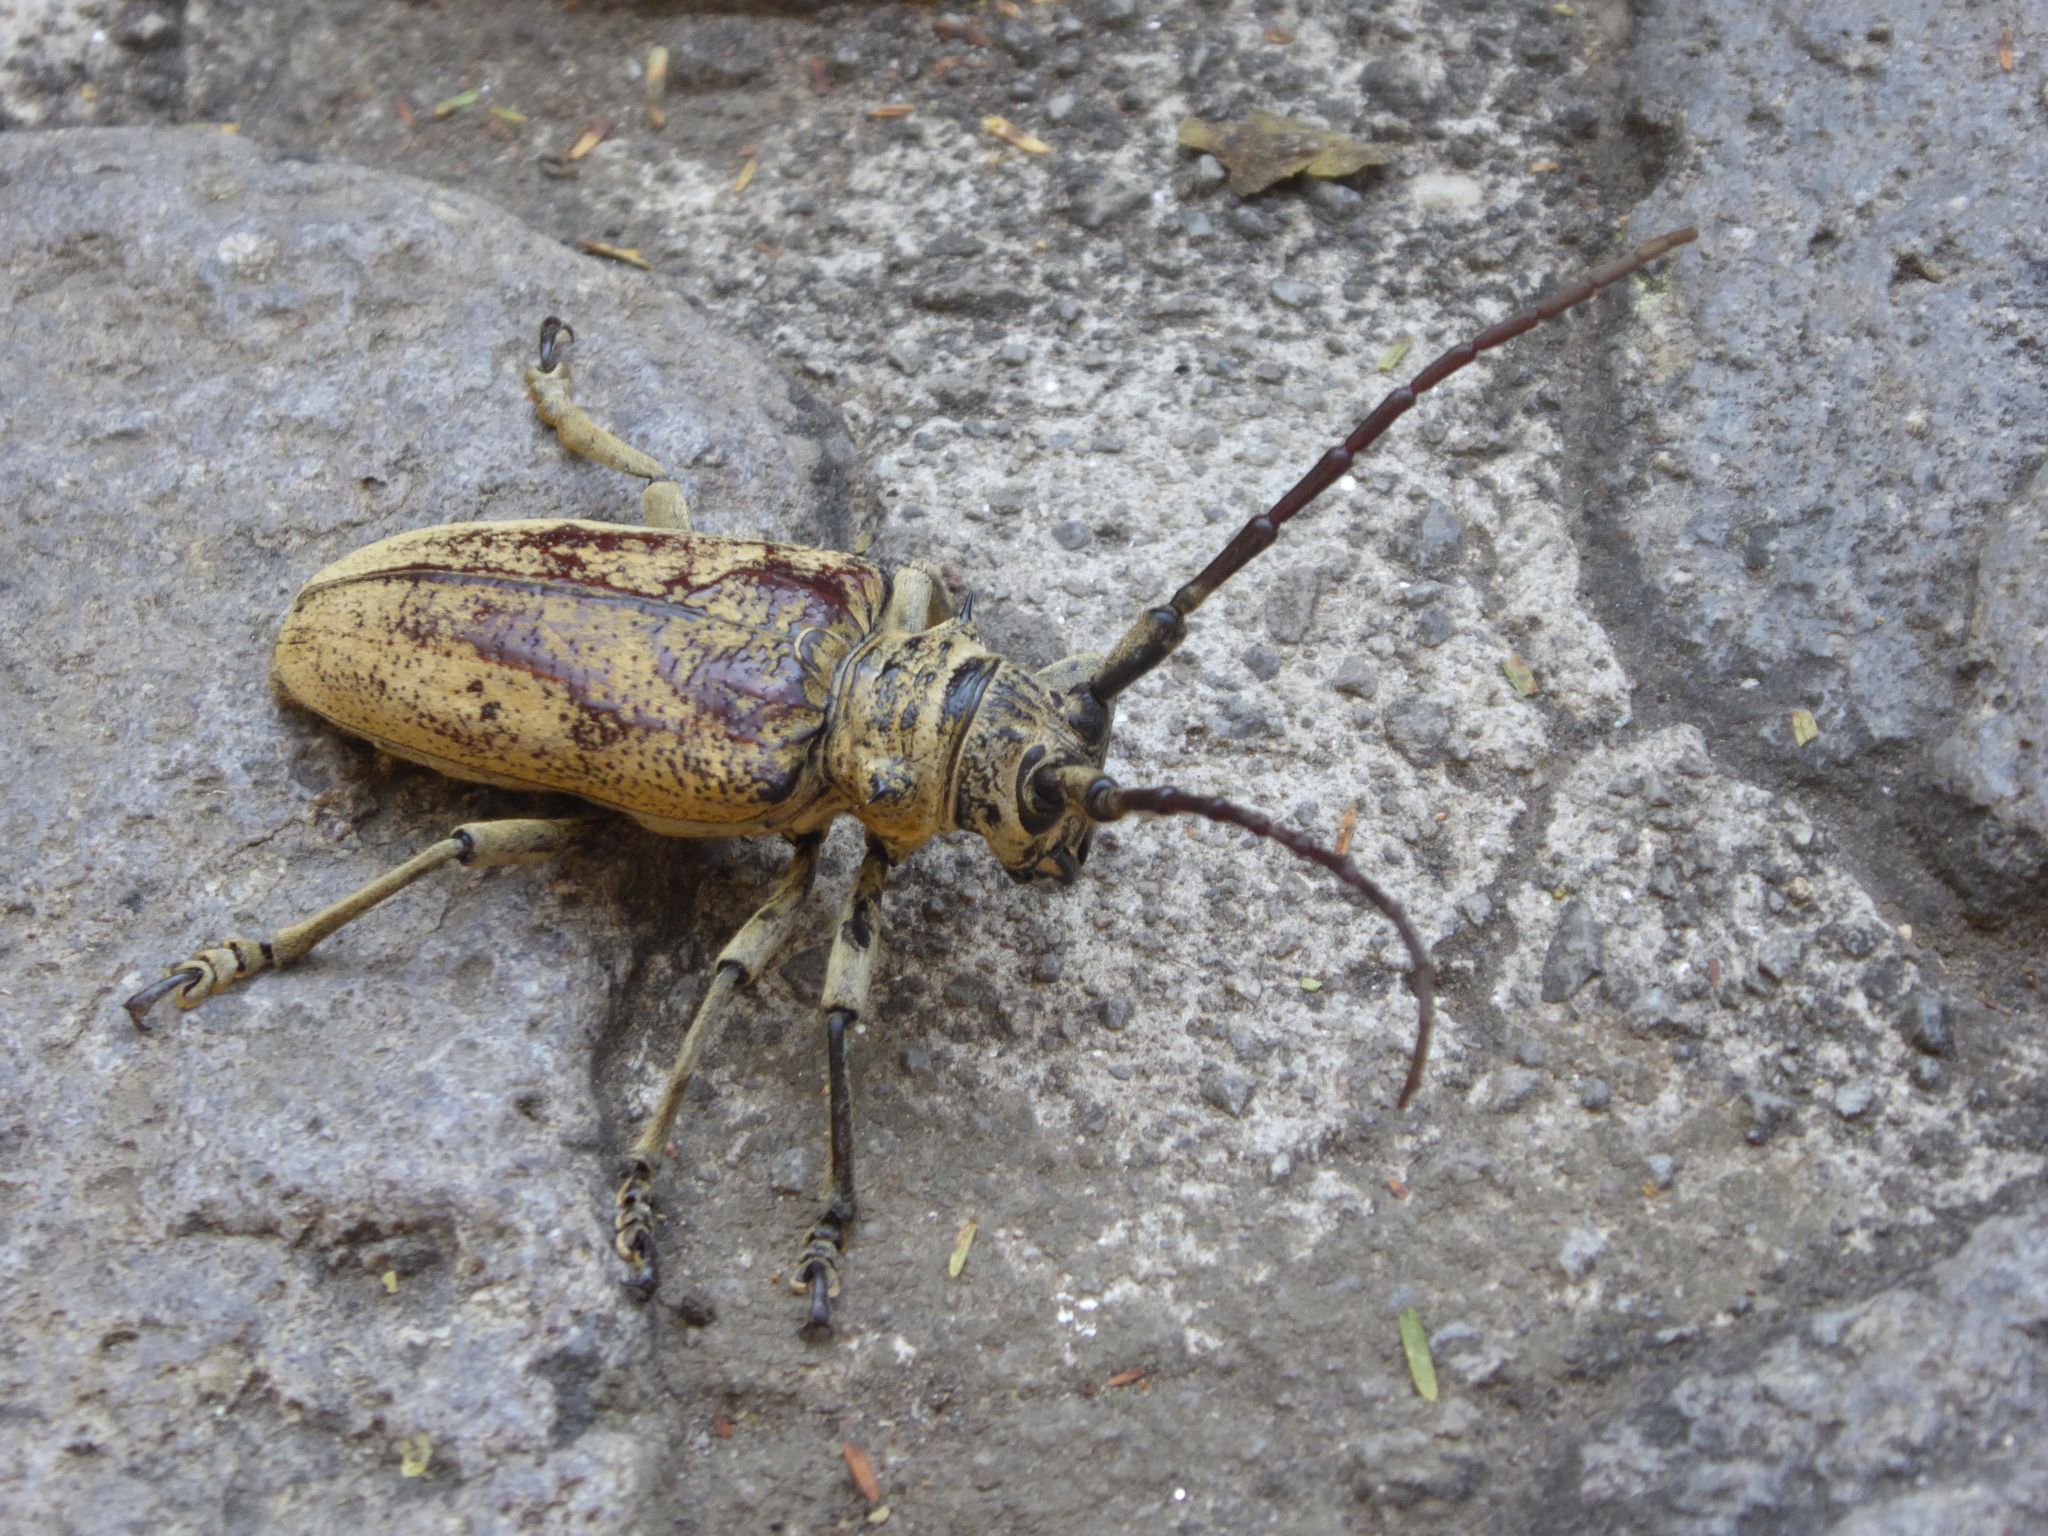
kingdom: Animalia
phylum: Arthropoda
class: Insecta
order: Coleoptera
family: Cerambycidae
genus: Mimolochus
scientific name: Mimolochus hoefneri
